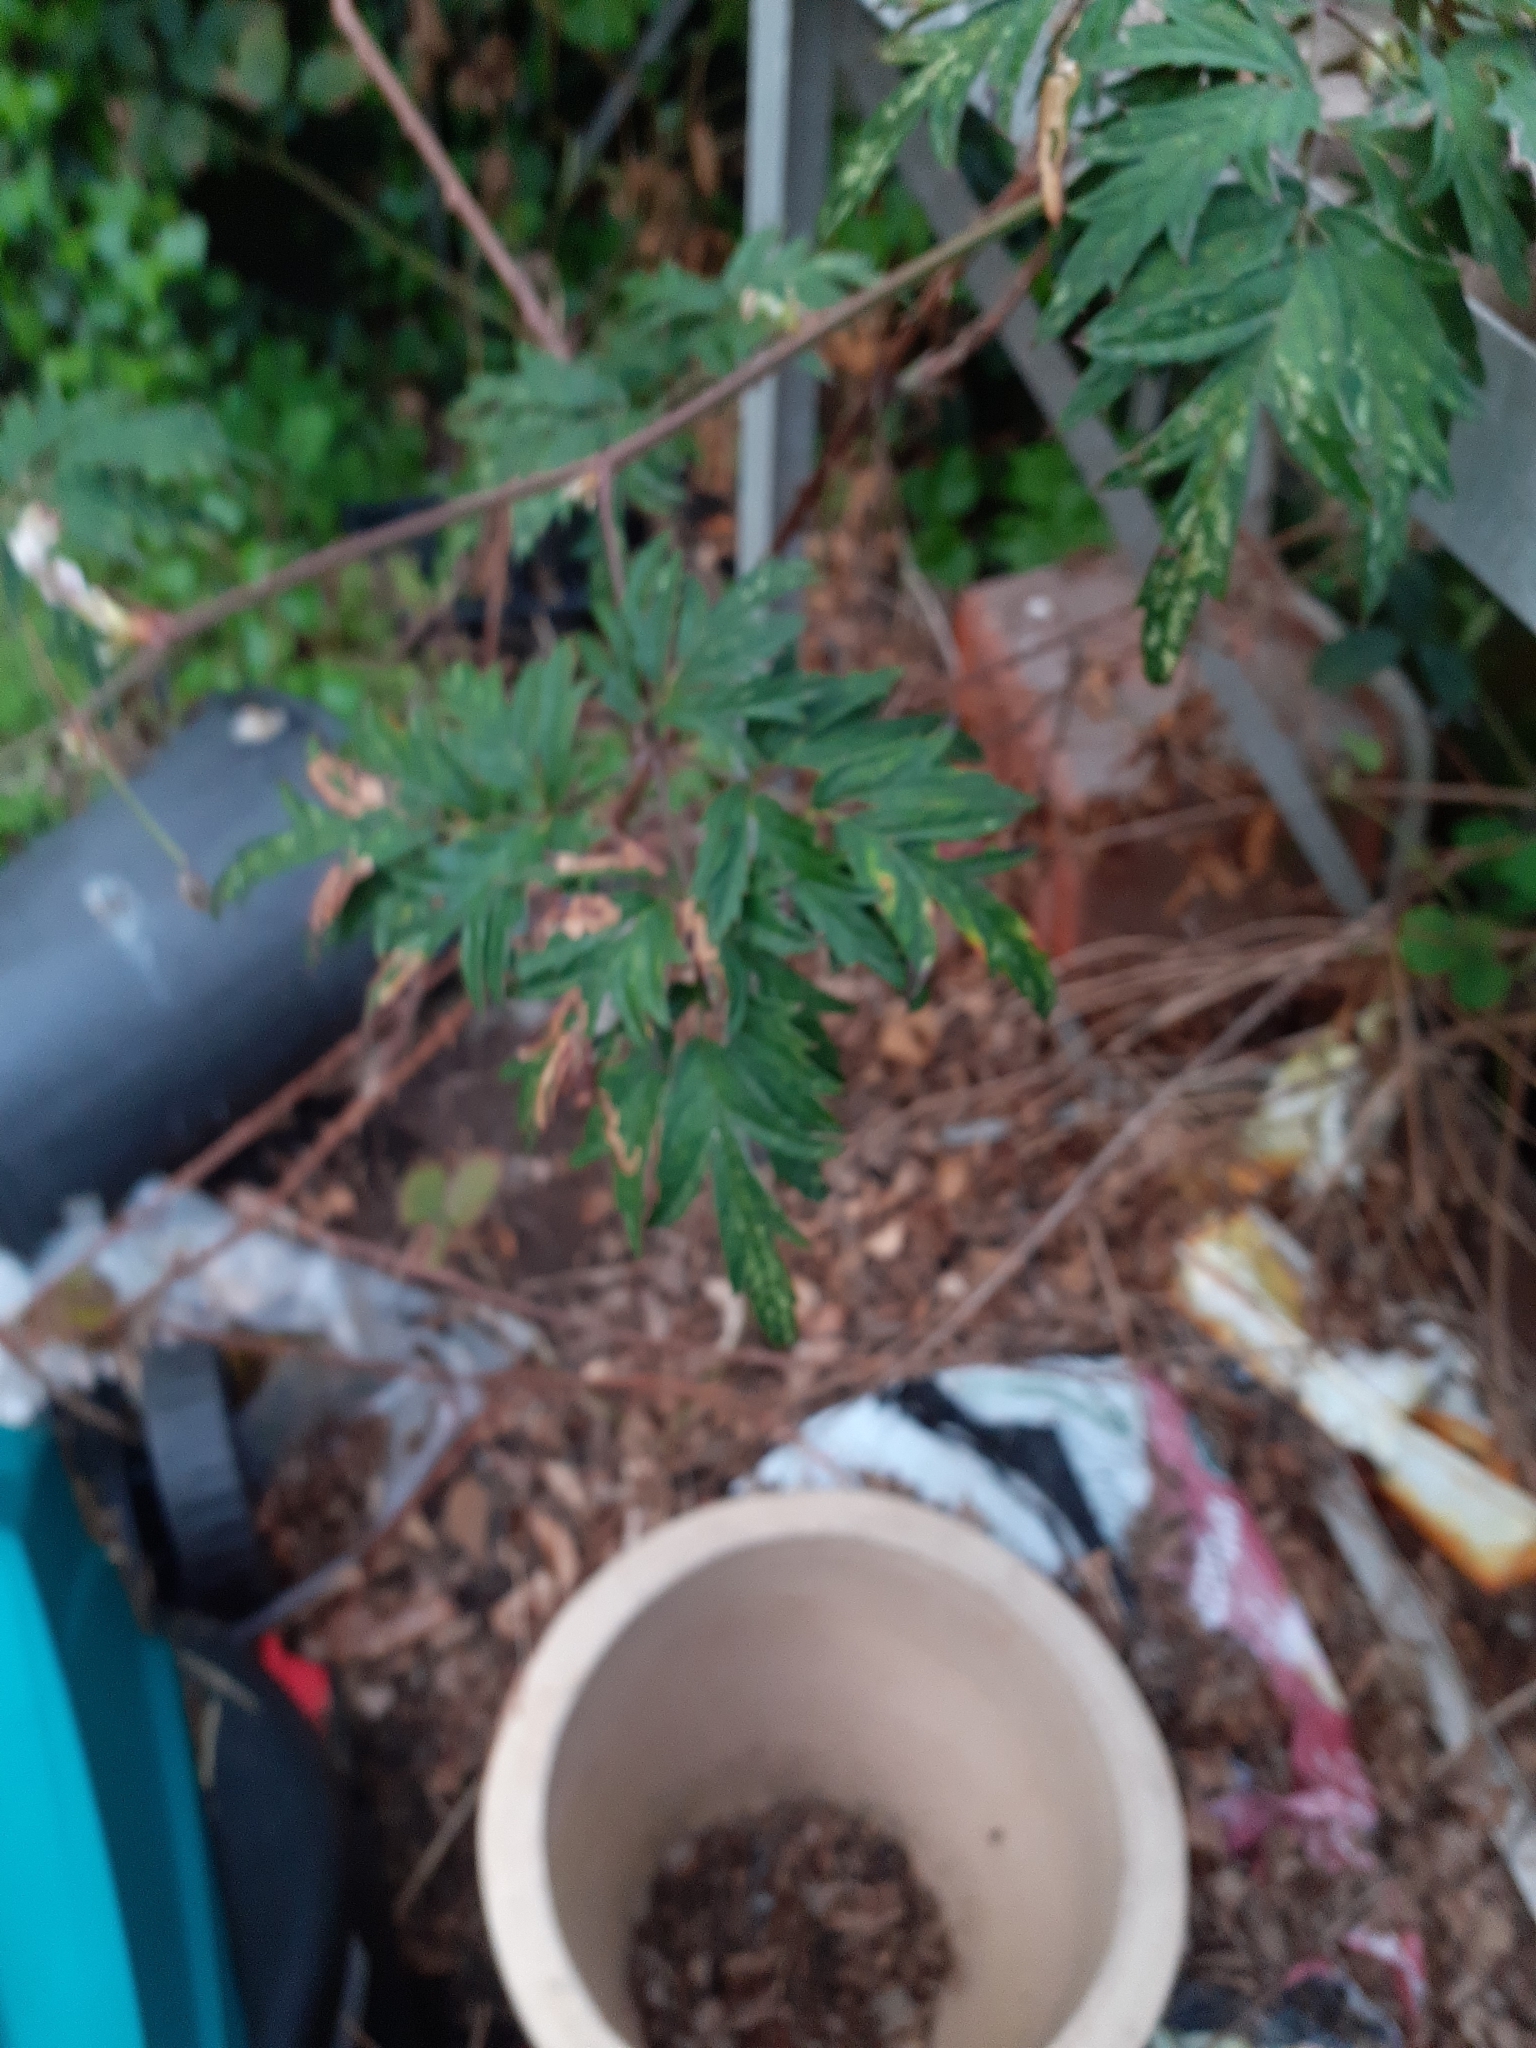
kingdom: Plantae
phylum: Tracheophyta
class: Magnoliopsida
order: Rosales
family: Rosaceae
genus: Rubus
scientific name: Rubus laciniatus
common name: Evergreen blackberry
